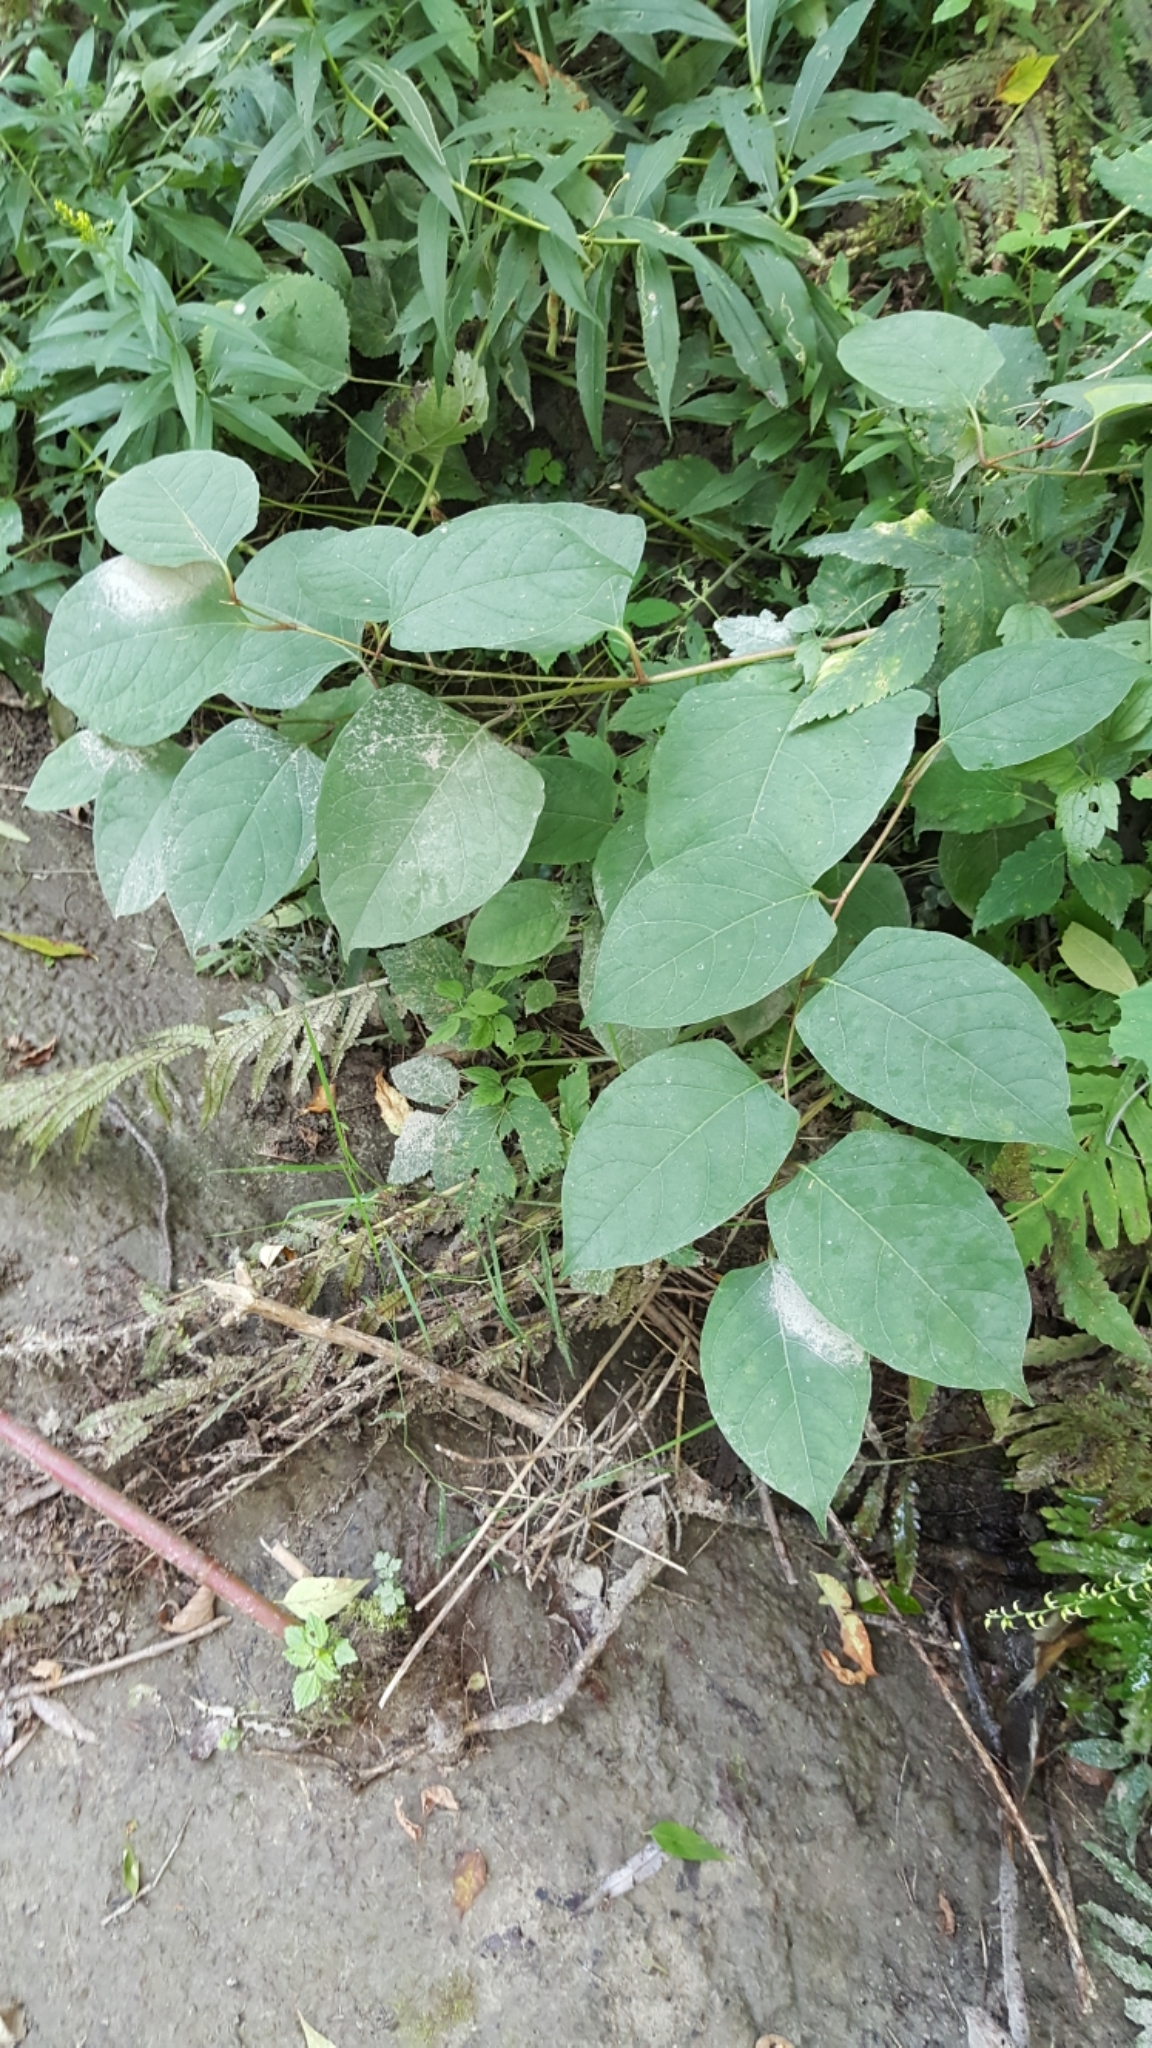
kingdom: Plantae
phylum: Tracheophyta
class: Magnoliopsida
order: Caryophyllales
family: Polygonaceae
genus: Reynoutria
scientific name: Reynoutria japonica
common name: Japanese knotweed
